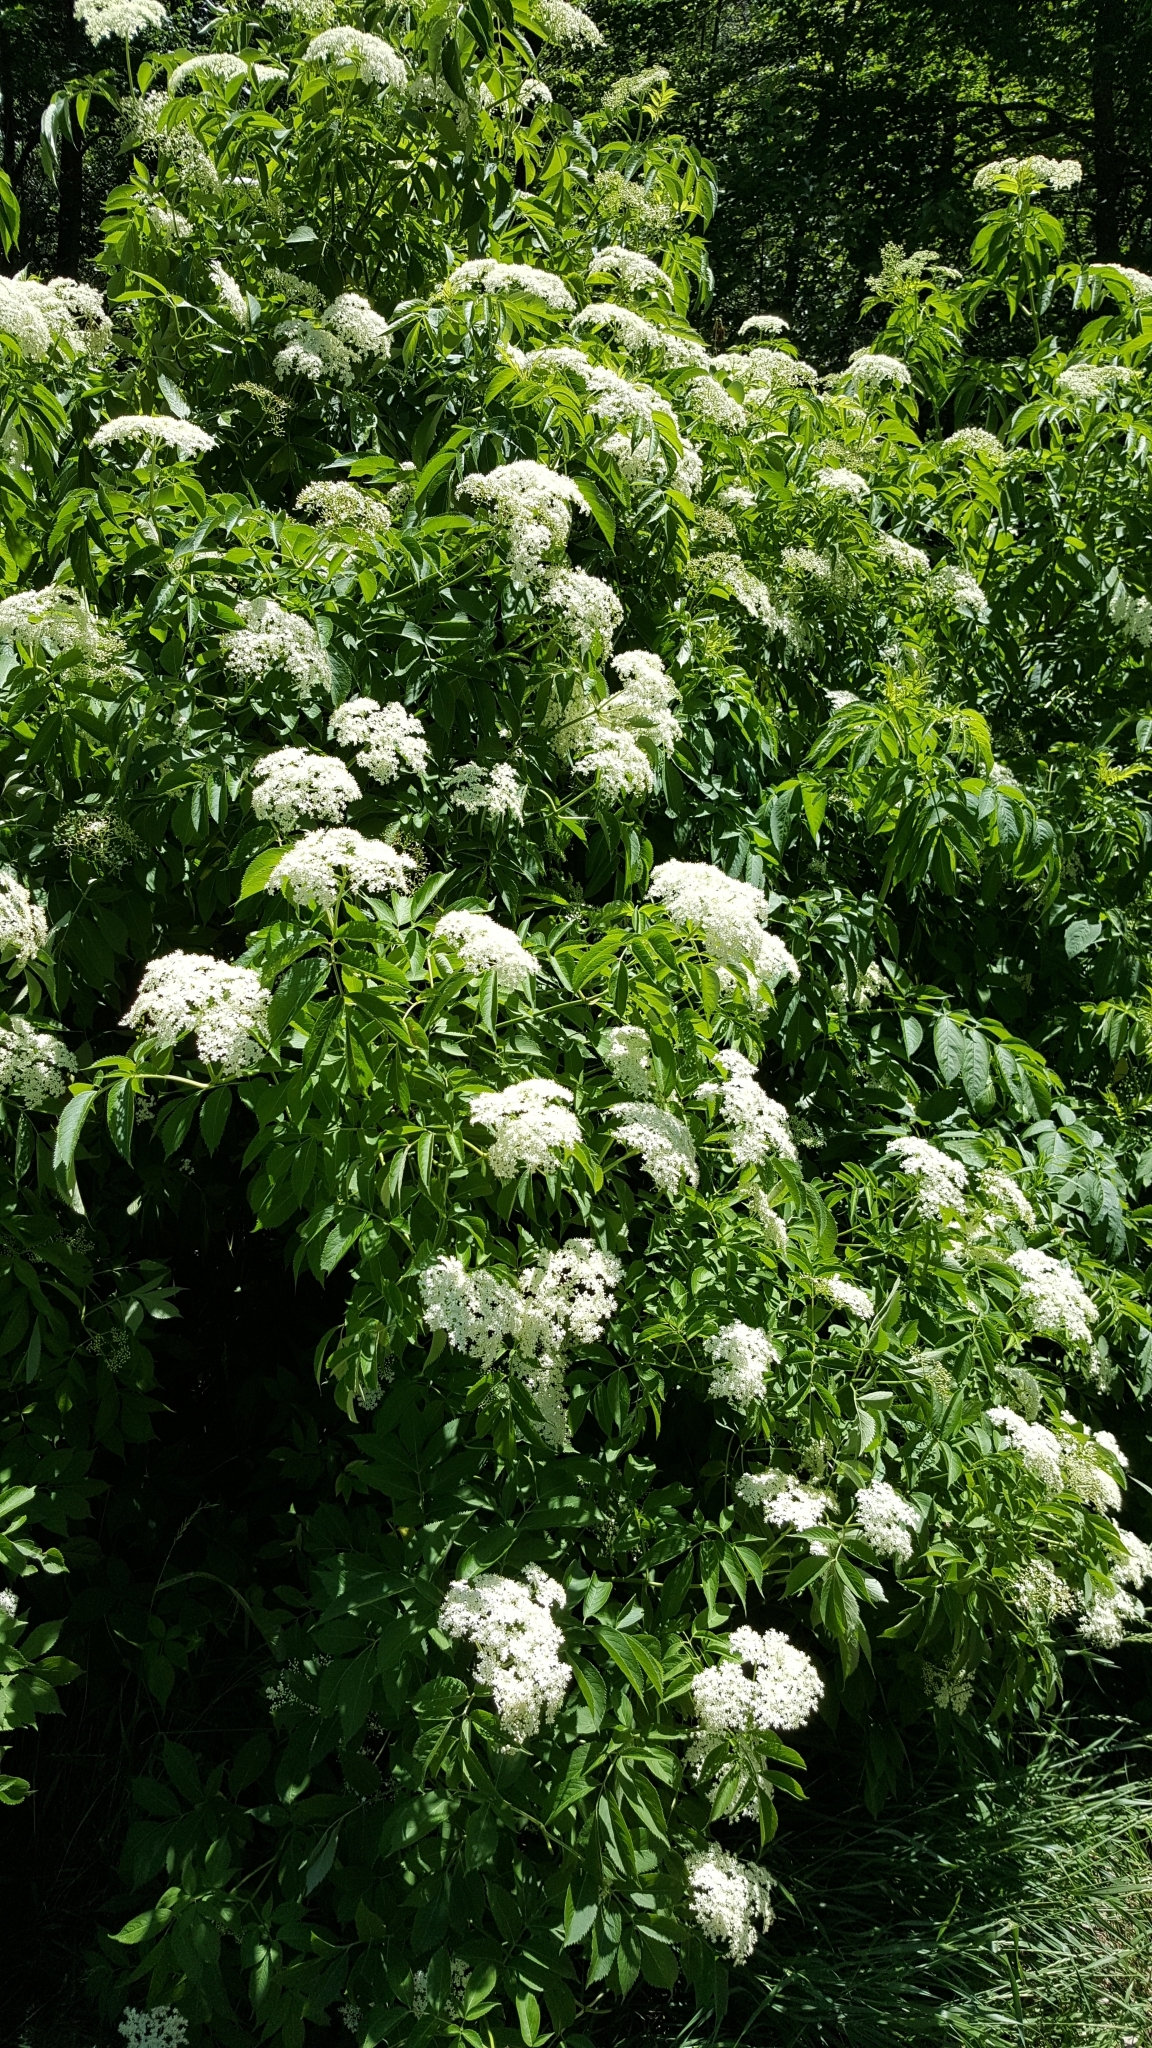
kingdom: Plantae
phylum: Tracheophyta
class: Magnoliopsida
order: Dipsacales
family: Viburnaceae
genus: Sambucus
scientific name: Sambucus canadensis
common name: American elder
